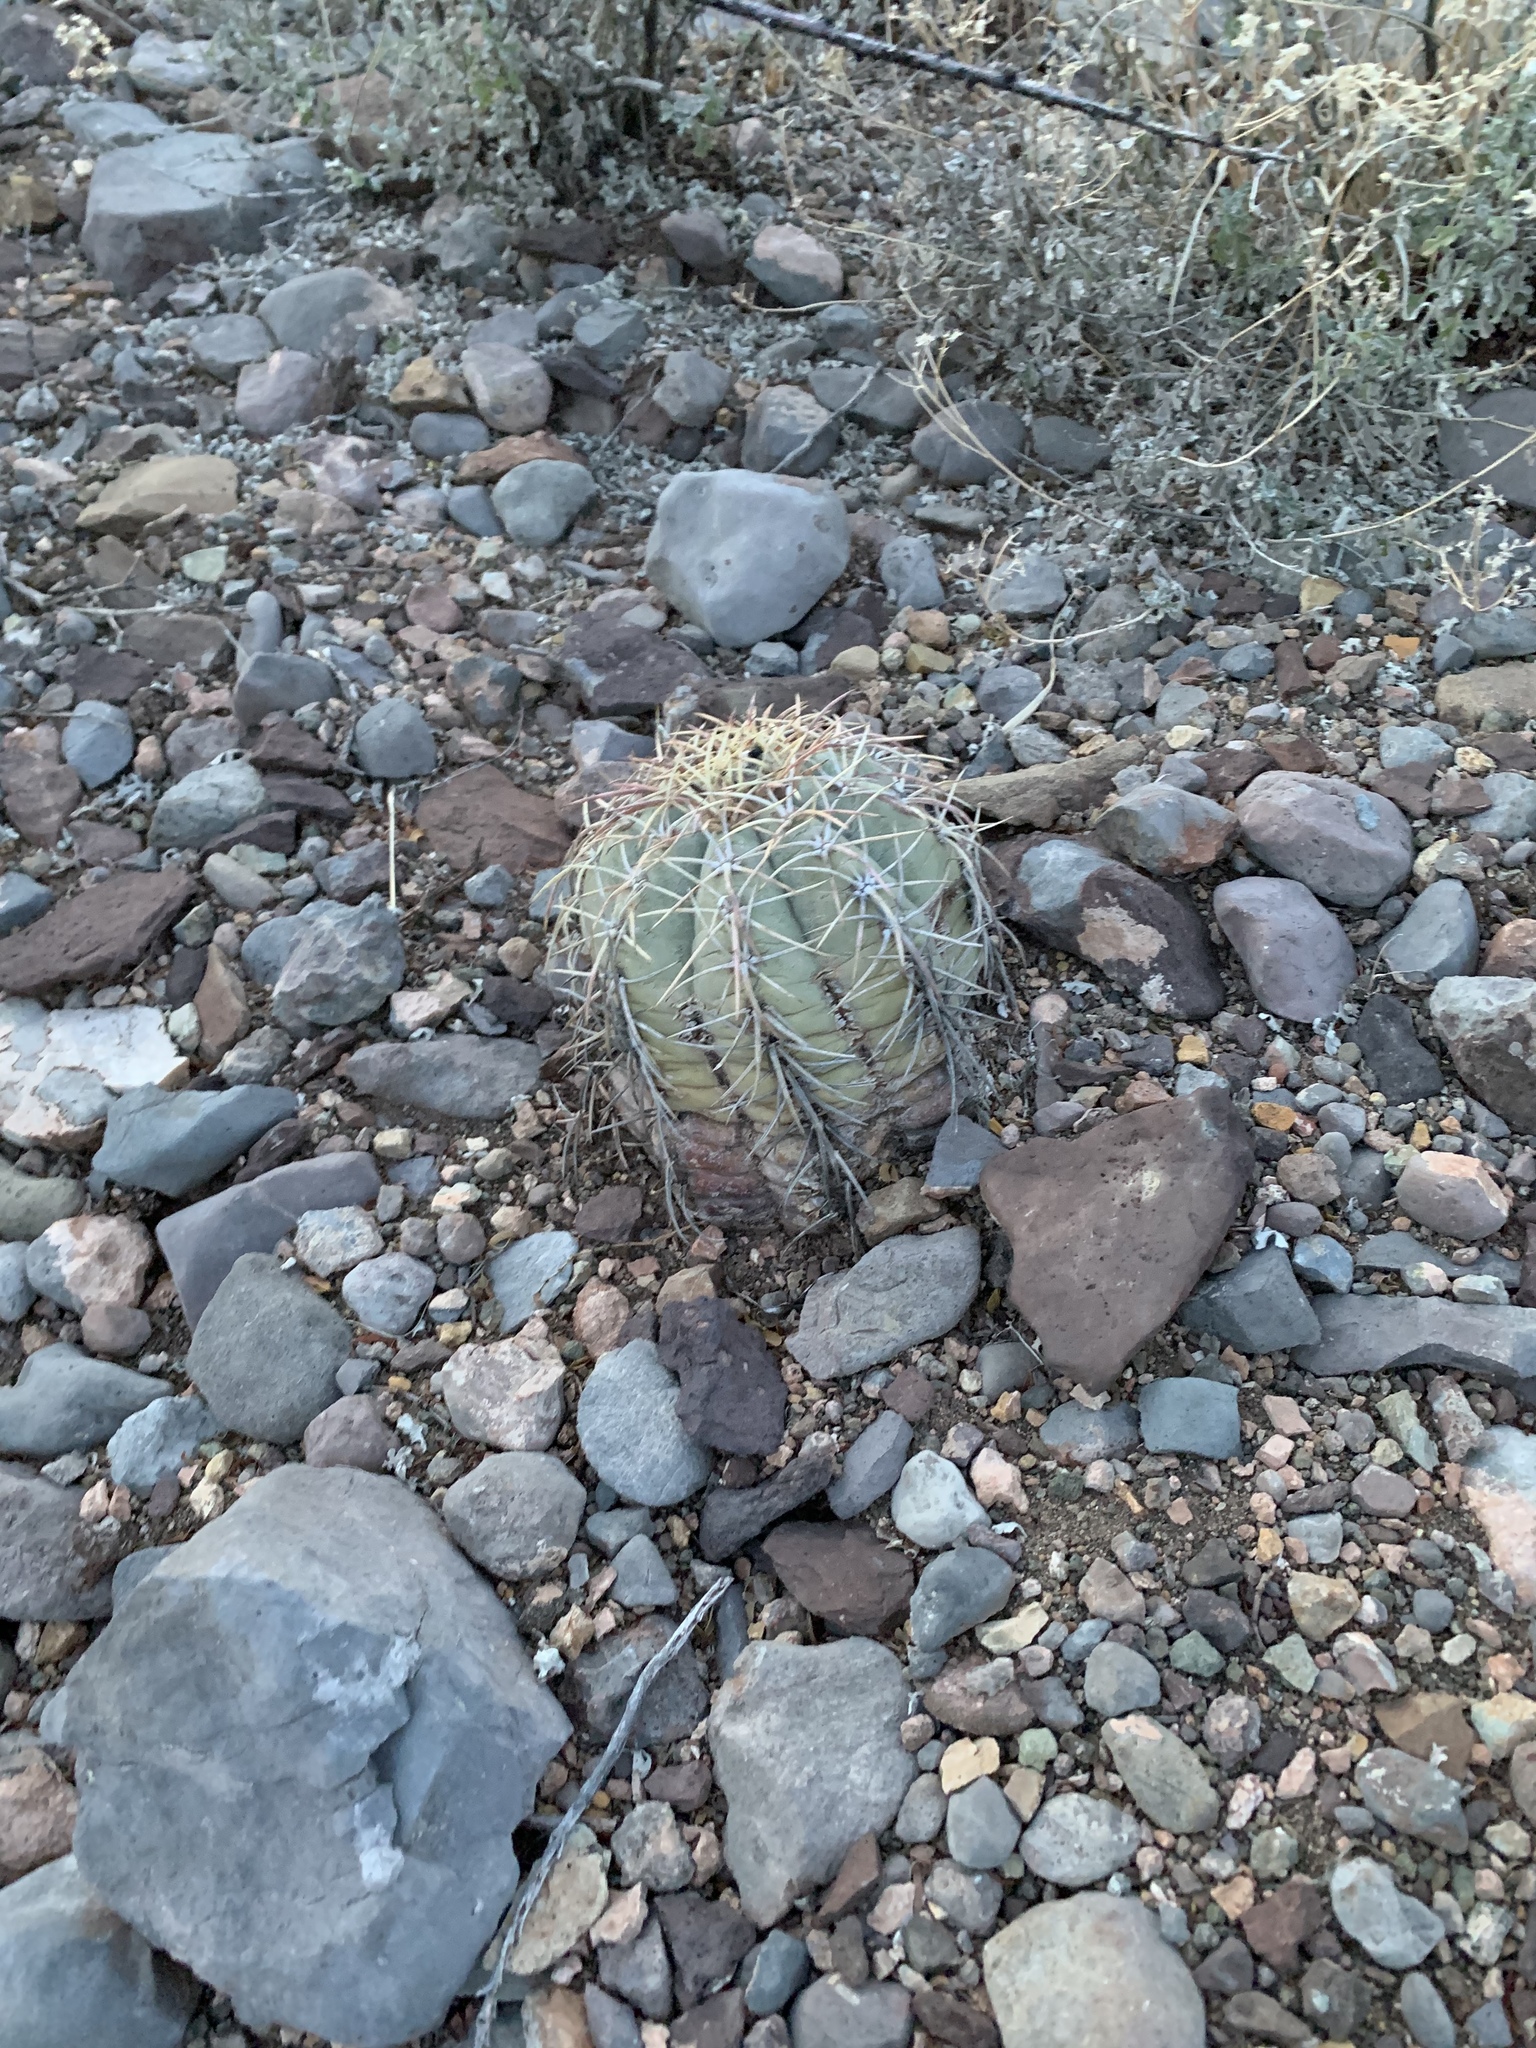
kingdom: Plantae
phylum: Tracheophyta
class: Magnoliopsida
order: Caryophyllales
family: Cactaceae
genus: Echinocactus
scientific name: Echinocactus horizonthalonius
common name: Devilshead
